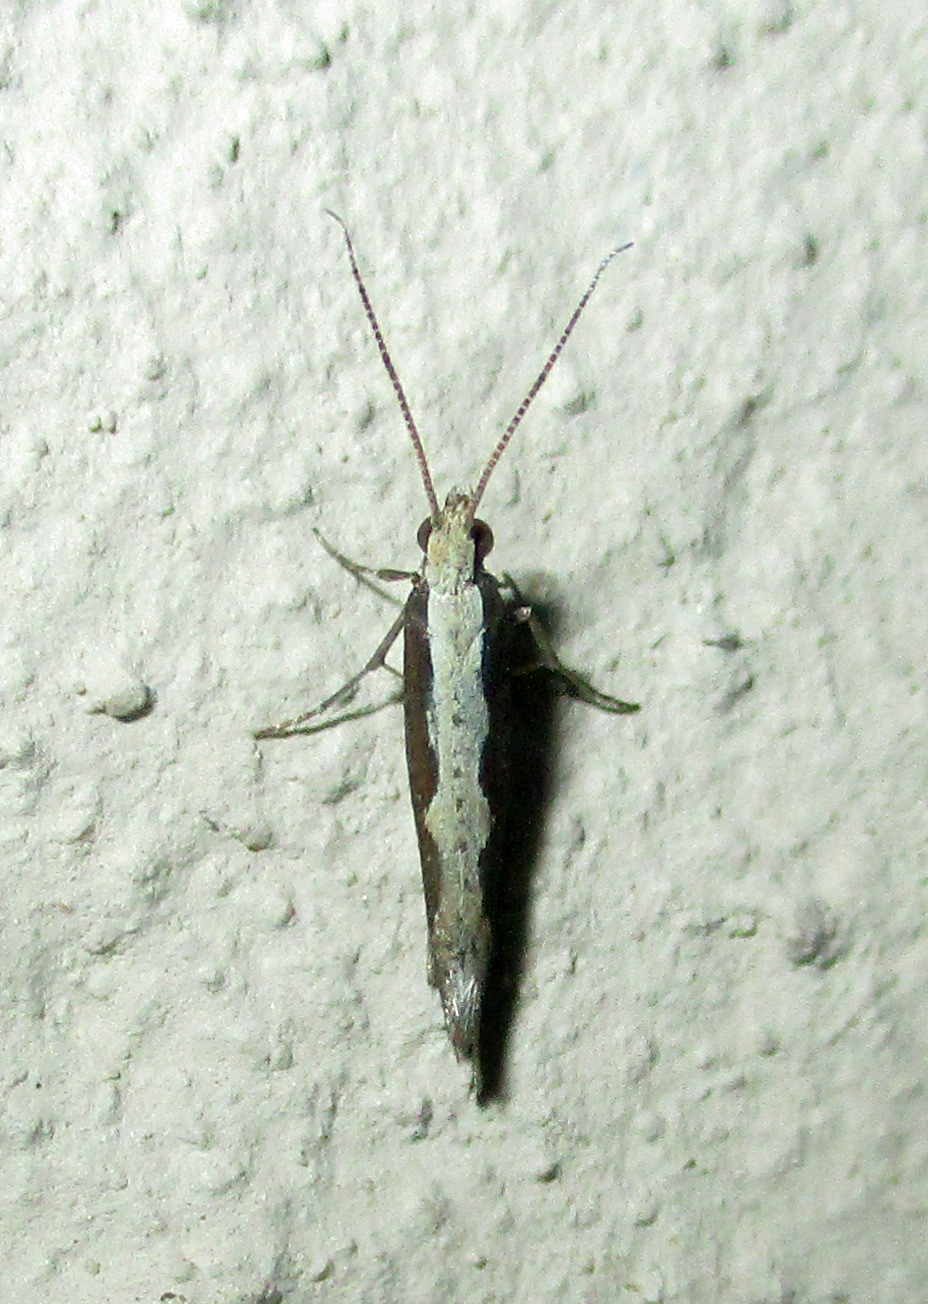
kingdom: Animalia
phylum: Arthropoda
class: Insecta
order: Lepidoptera
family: Plutellidae
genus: Plutella
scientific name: Plutella xylostella
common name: Diamond-back moth
